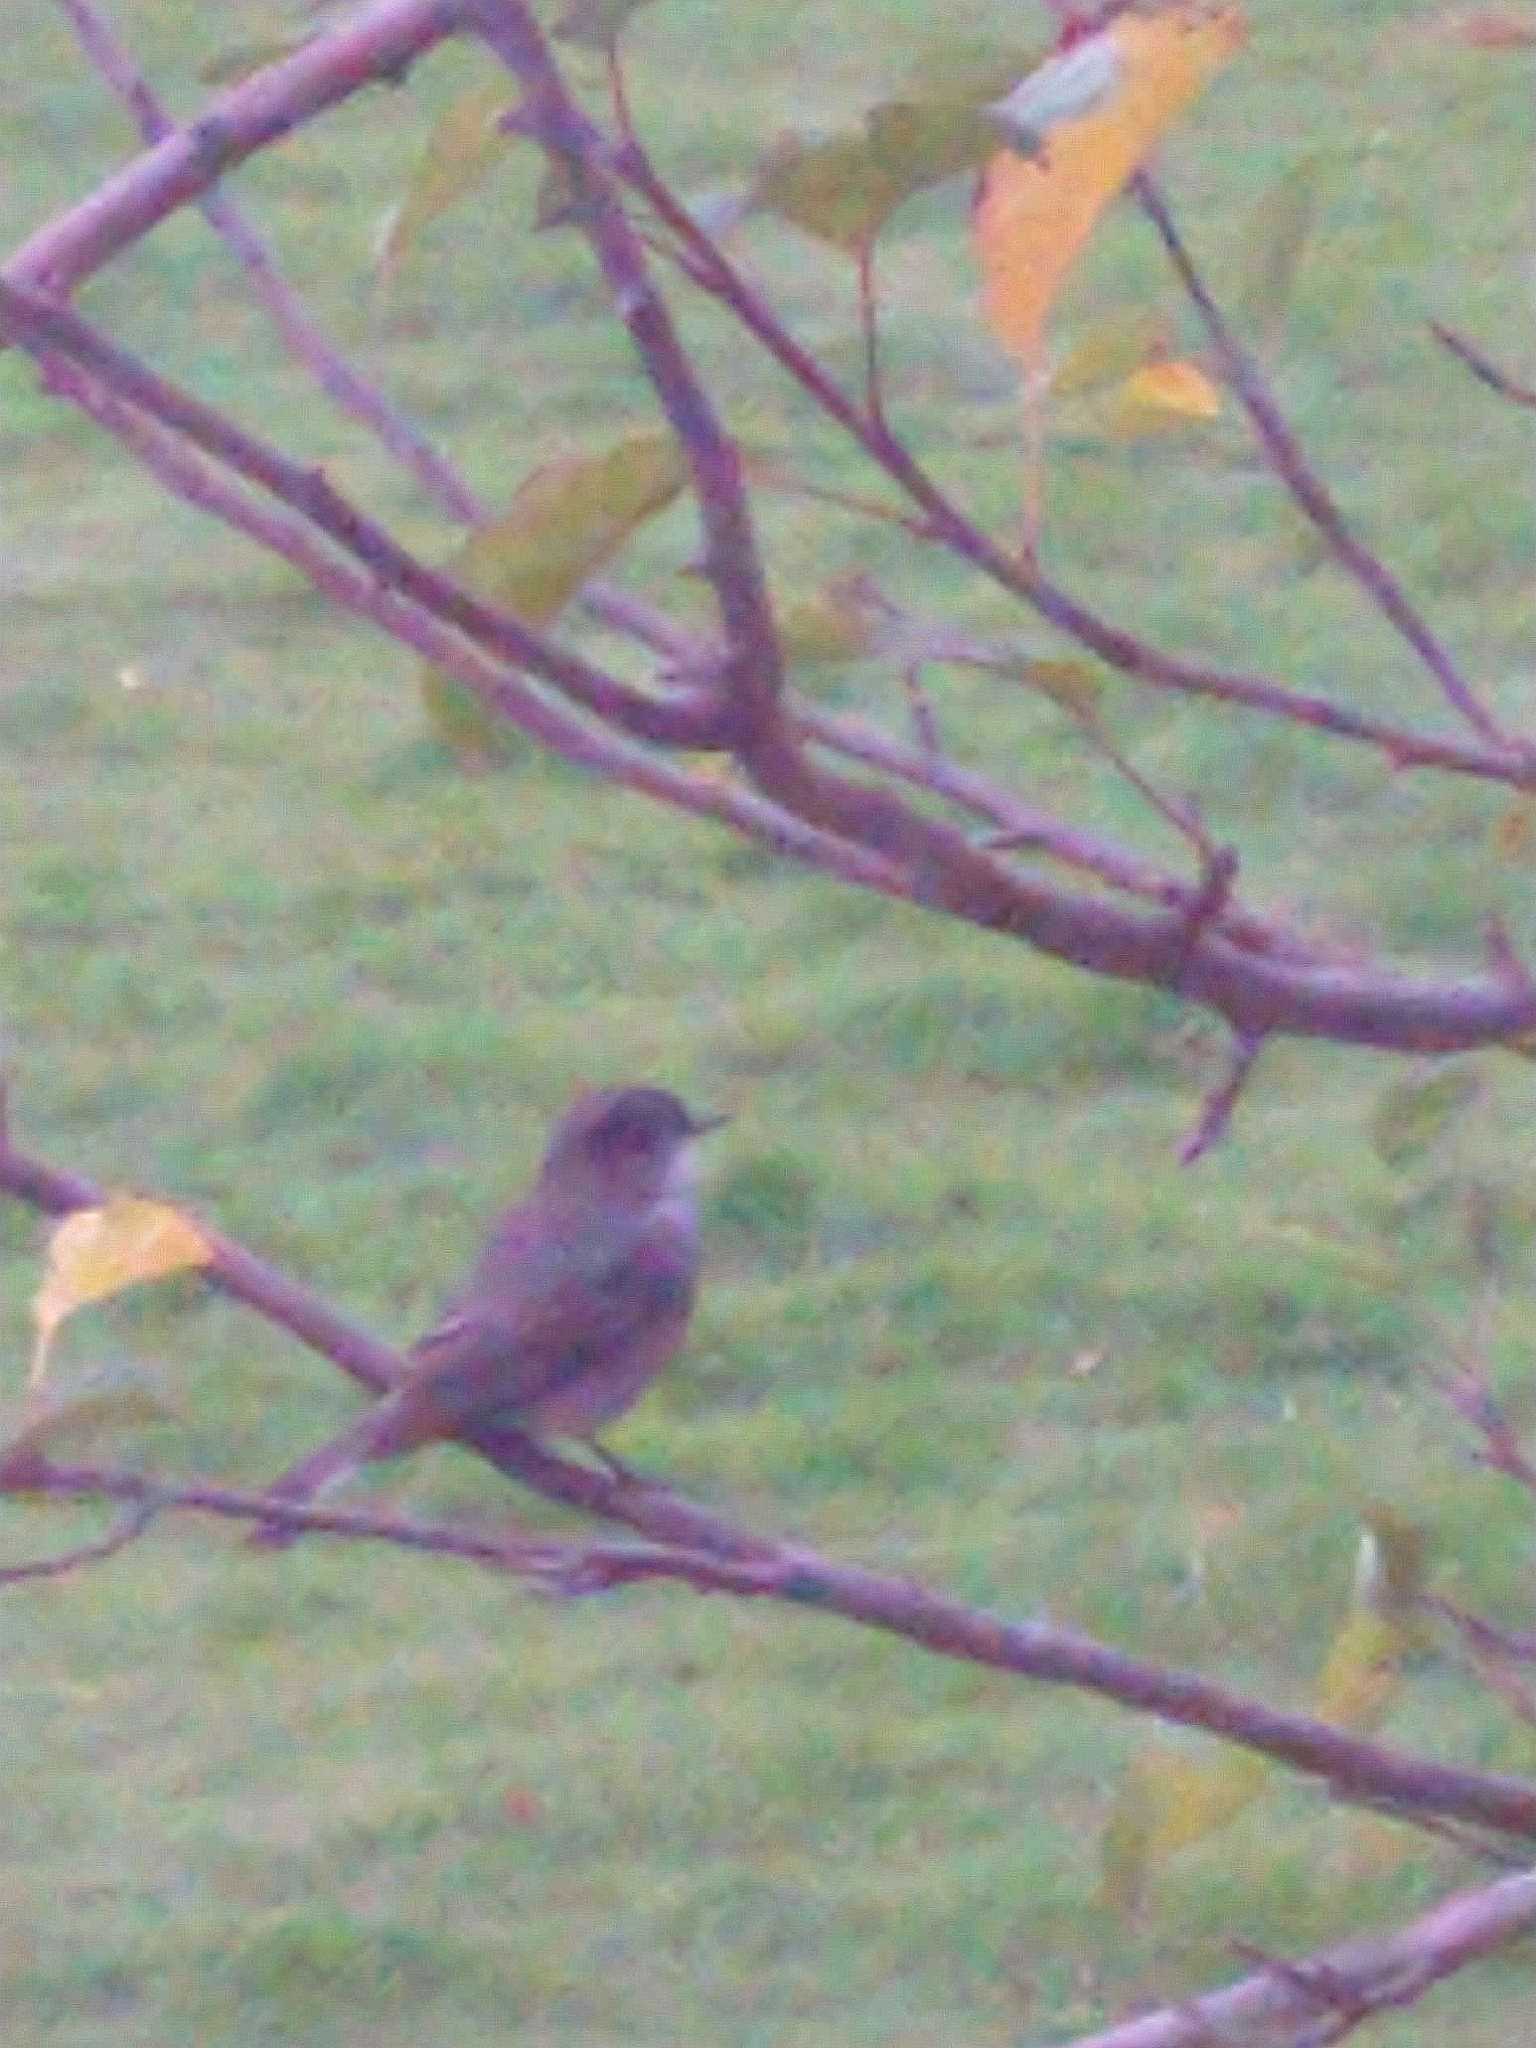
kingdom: Animalia
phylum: Chordata
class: Aves
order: Passeriformes
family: Tyrannidae
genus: Xolmis
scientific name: Xolmis pyrope
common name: Fire-eyed diucon
